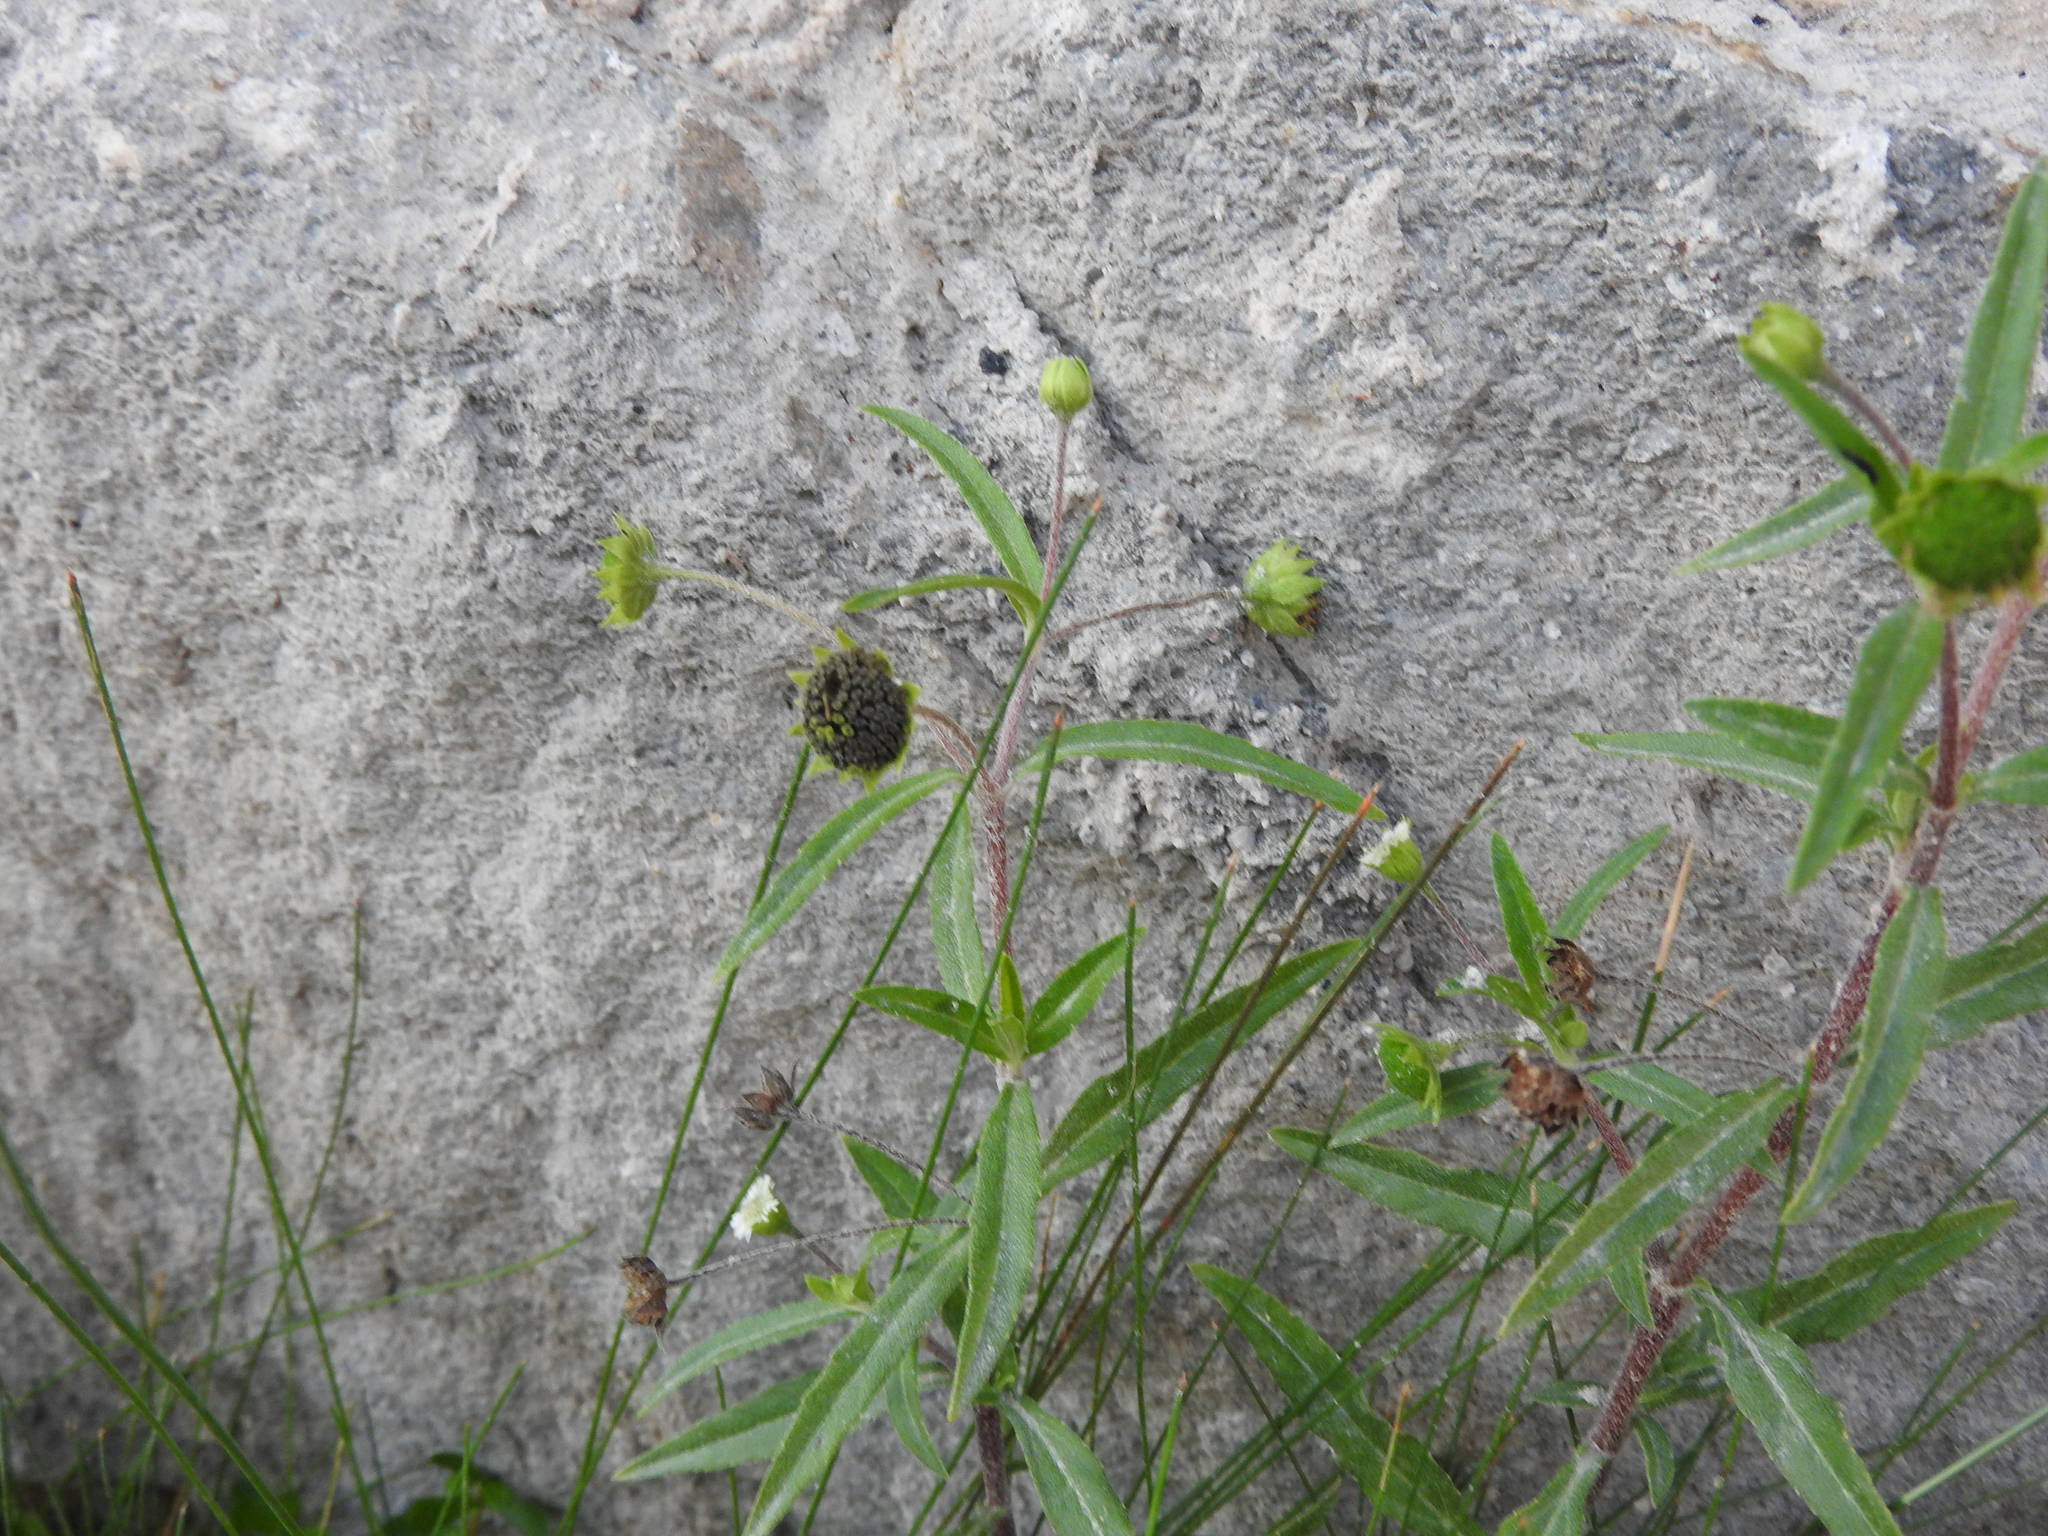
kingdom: Plantae
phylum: Tracheophyta
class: Magnoliopsida
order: Asterales
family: Asteraceae
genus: Eclipta
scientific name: Eclipta prostrata
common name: False daisy
